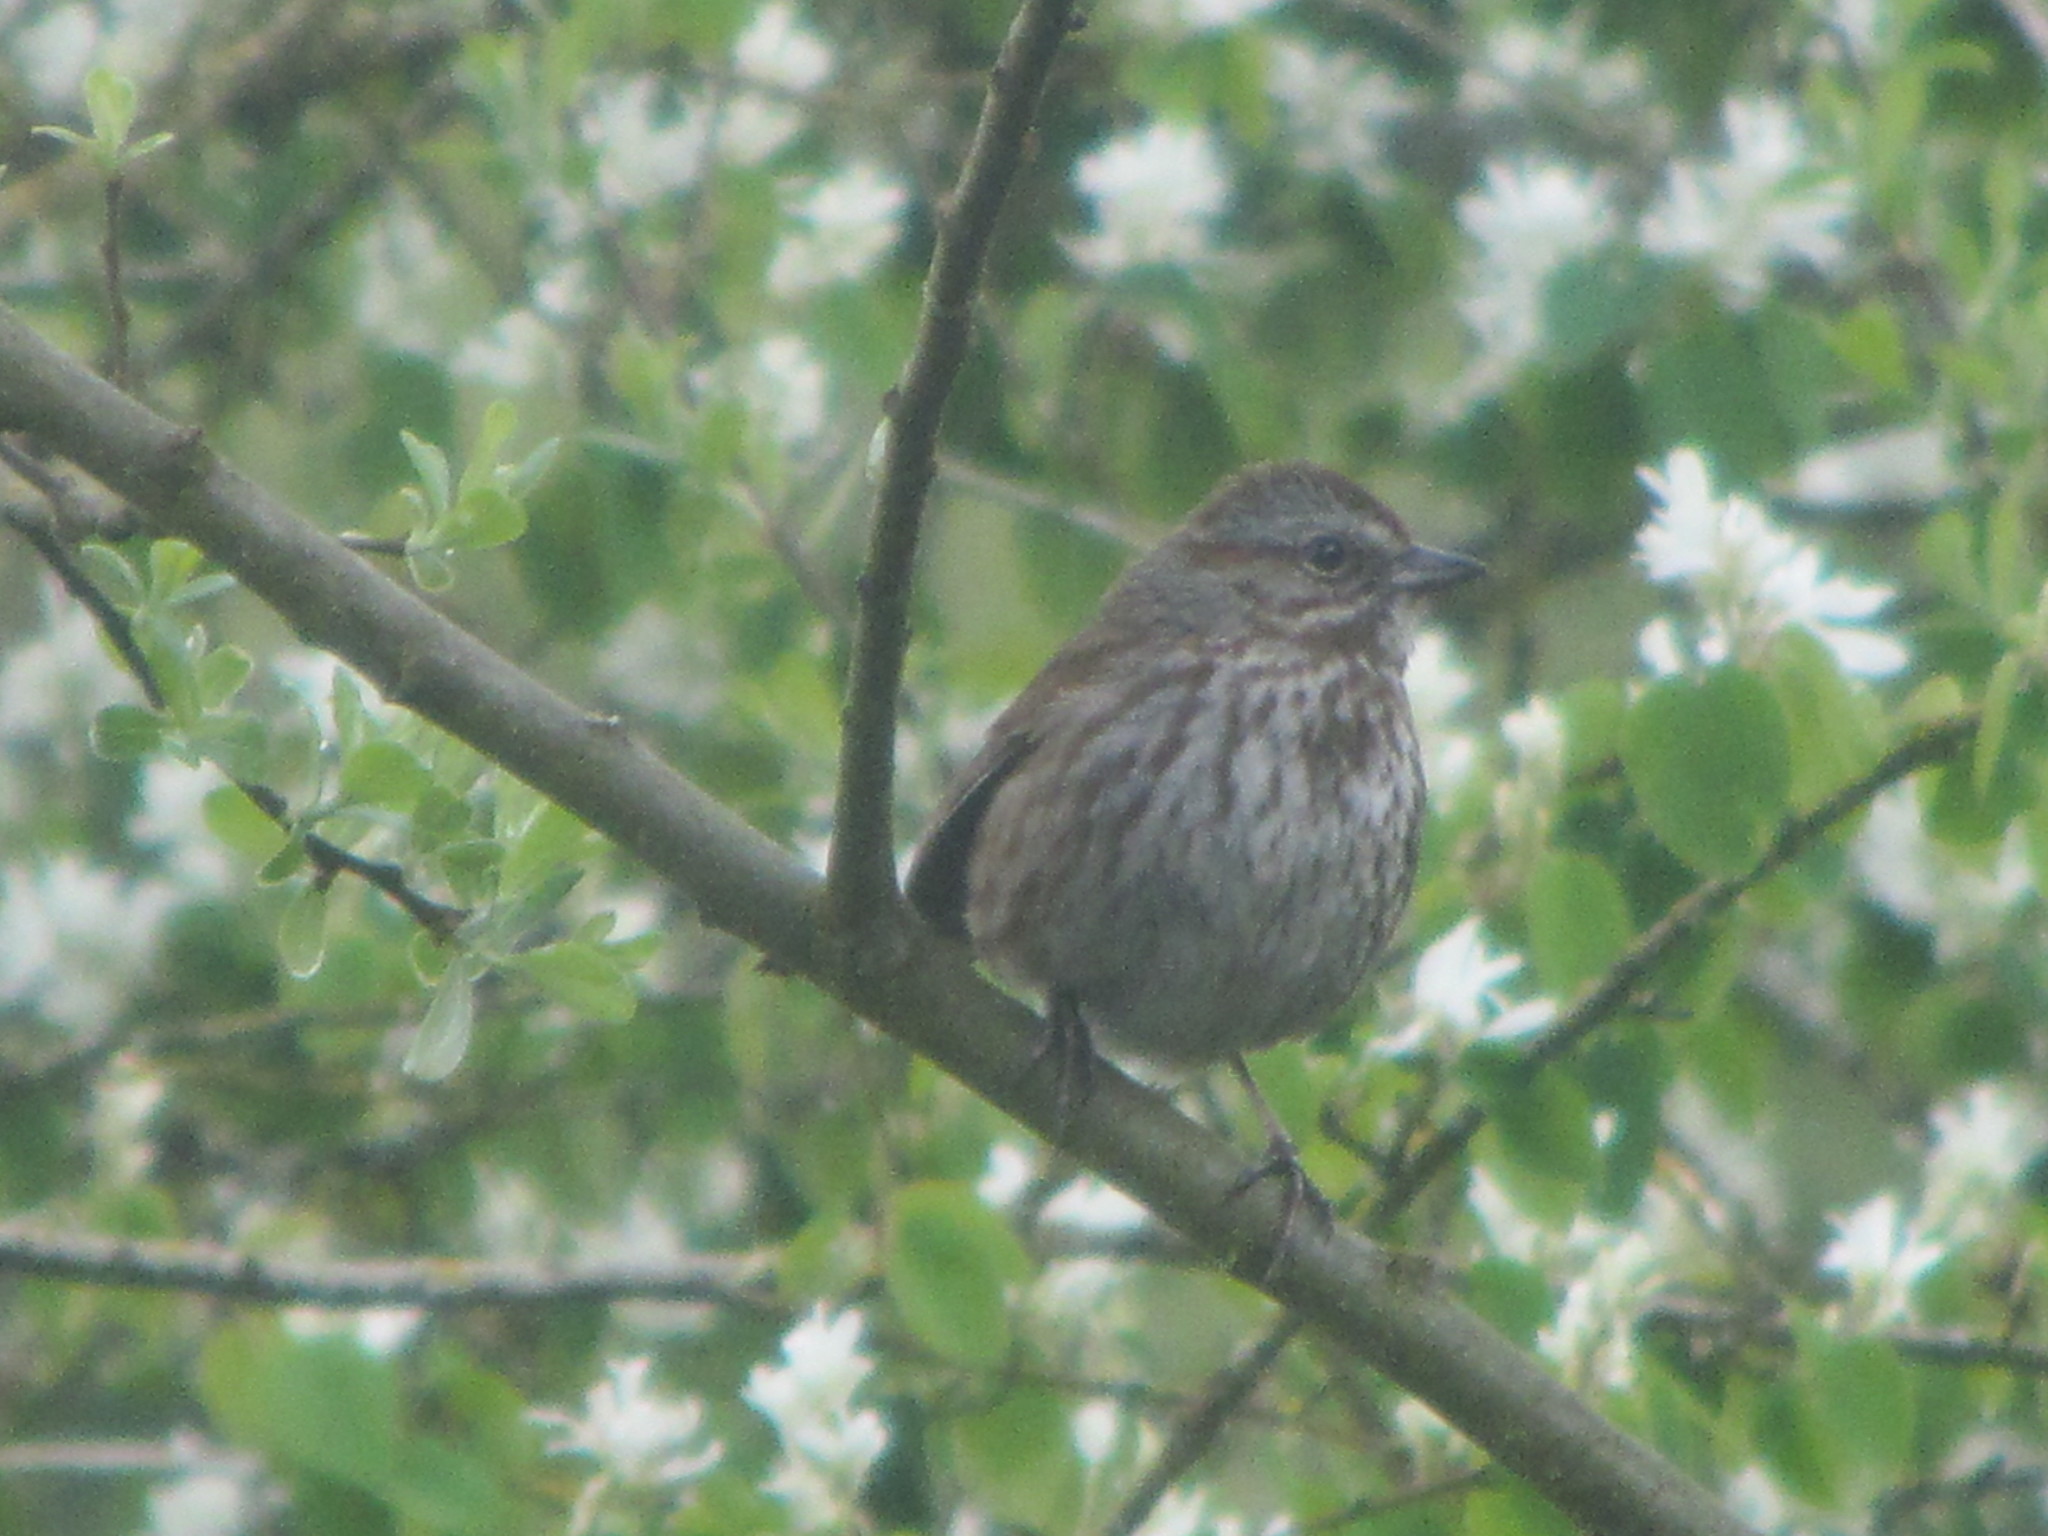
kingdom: Animalia
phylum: Chordata
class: Aves
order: Passeriformes
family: Passerellidae
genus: Melospiza
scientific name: Melospiza melodia
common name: Song sparrow
